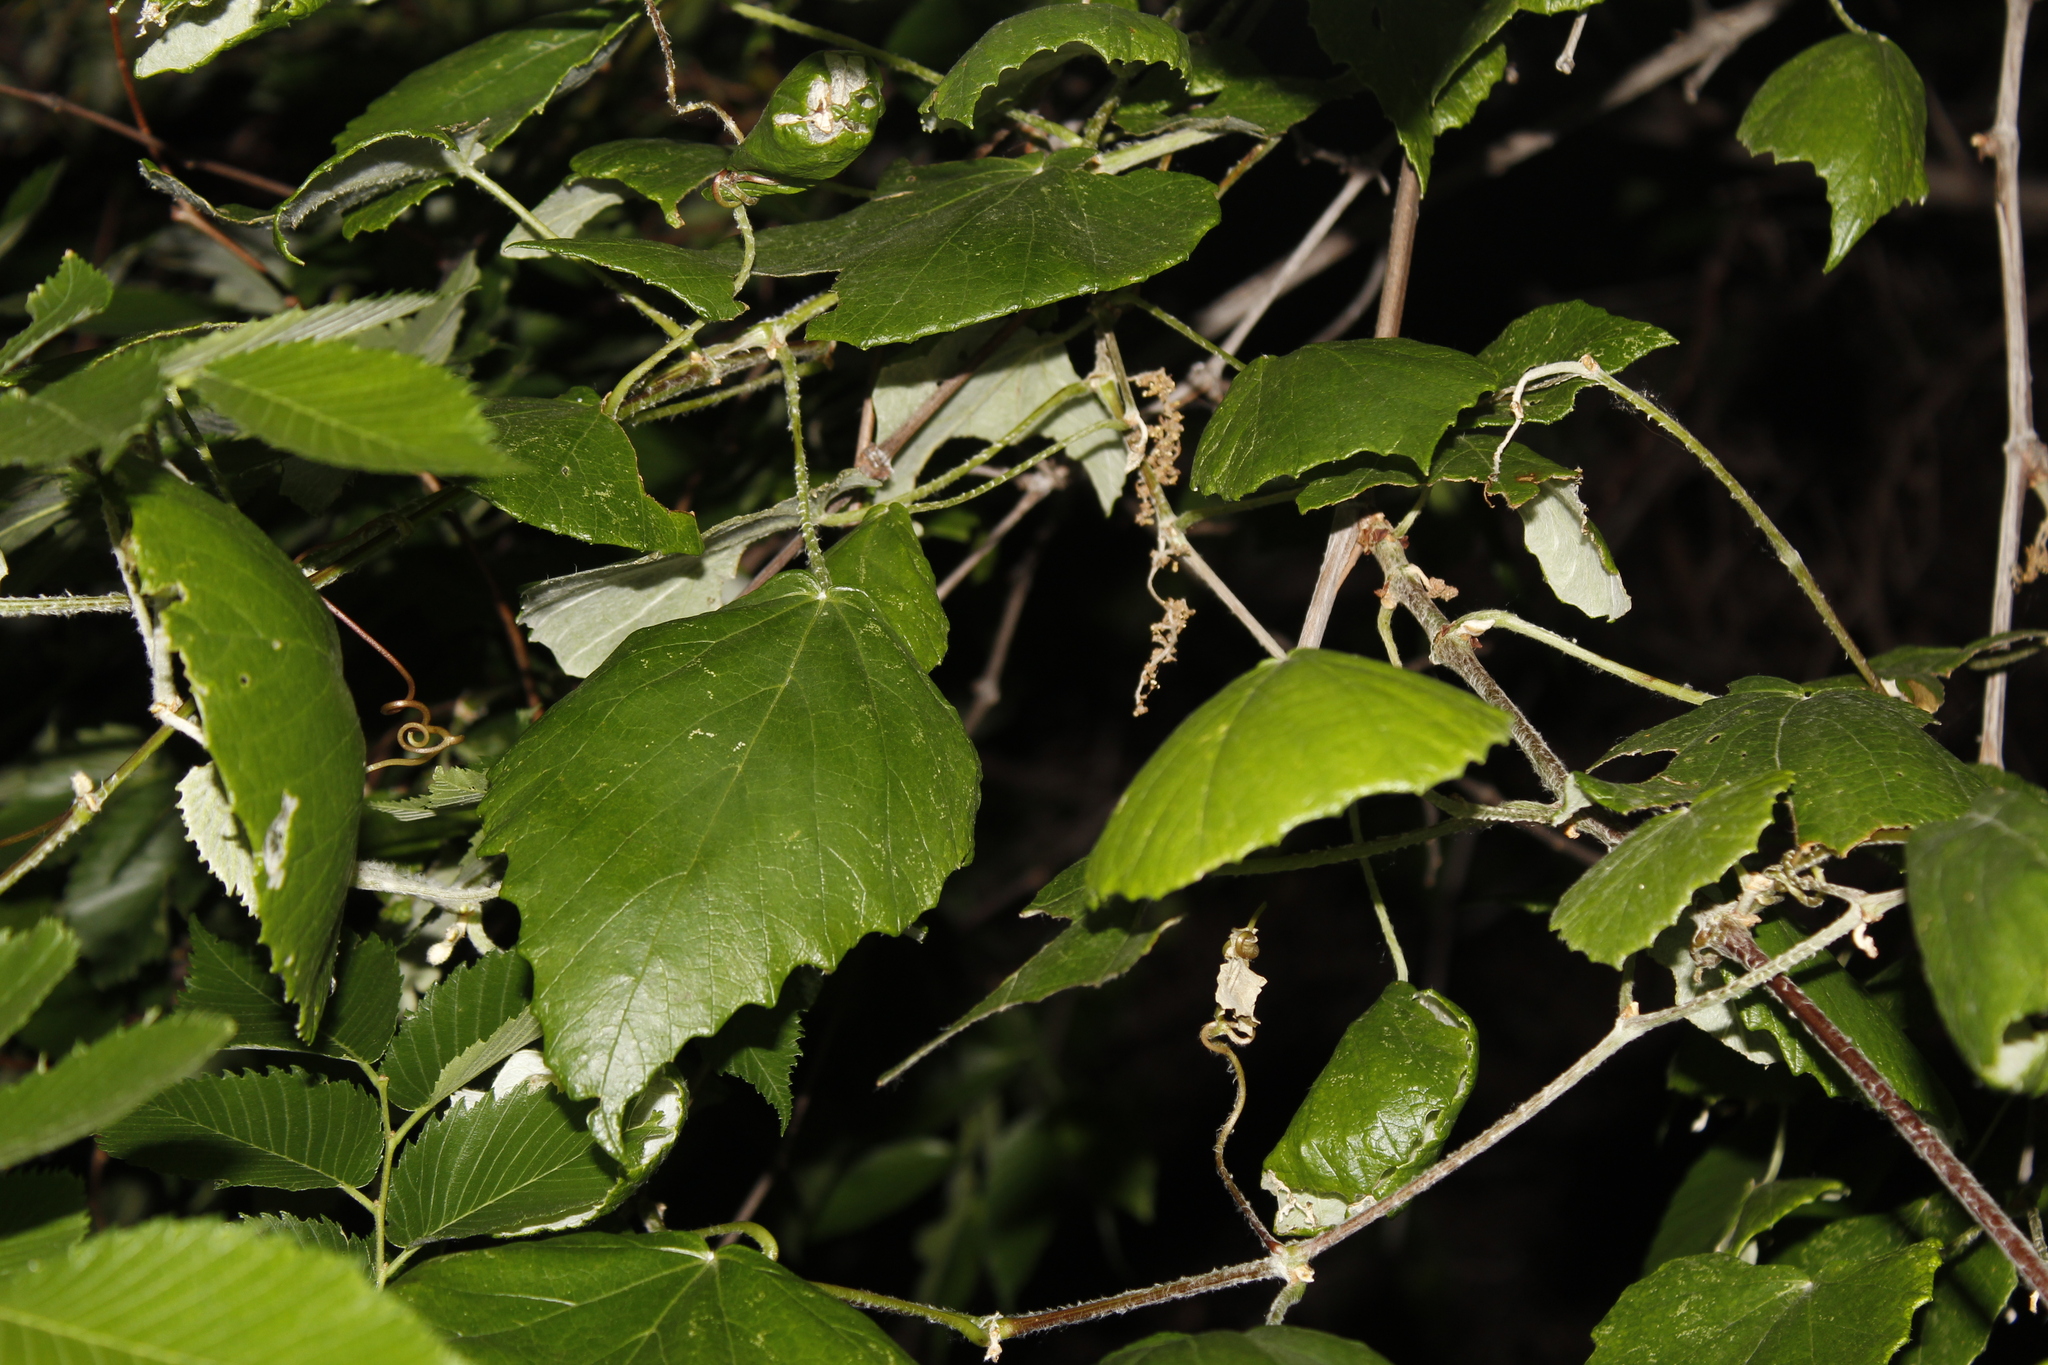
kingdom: Plantae
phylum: Tracheophyta
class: Magnoliopsida
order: Vitales
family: Vitaceae
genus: Vitis
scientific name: Vitis mustangensis
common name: Mustang grape
